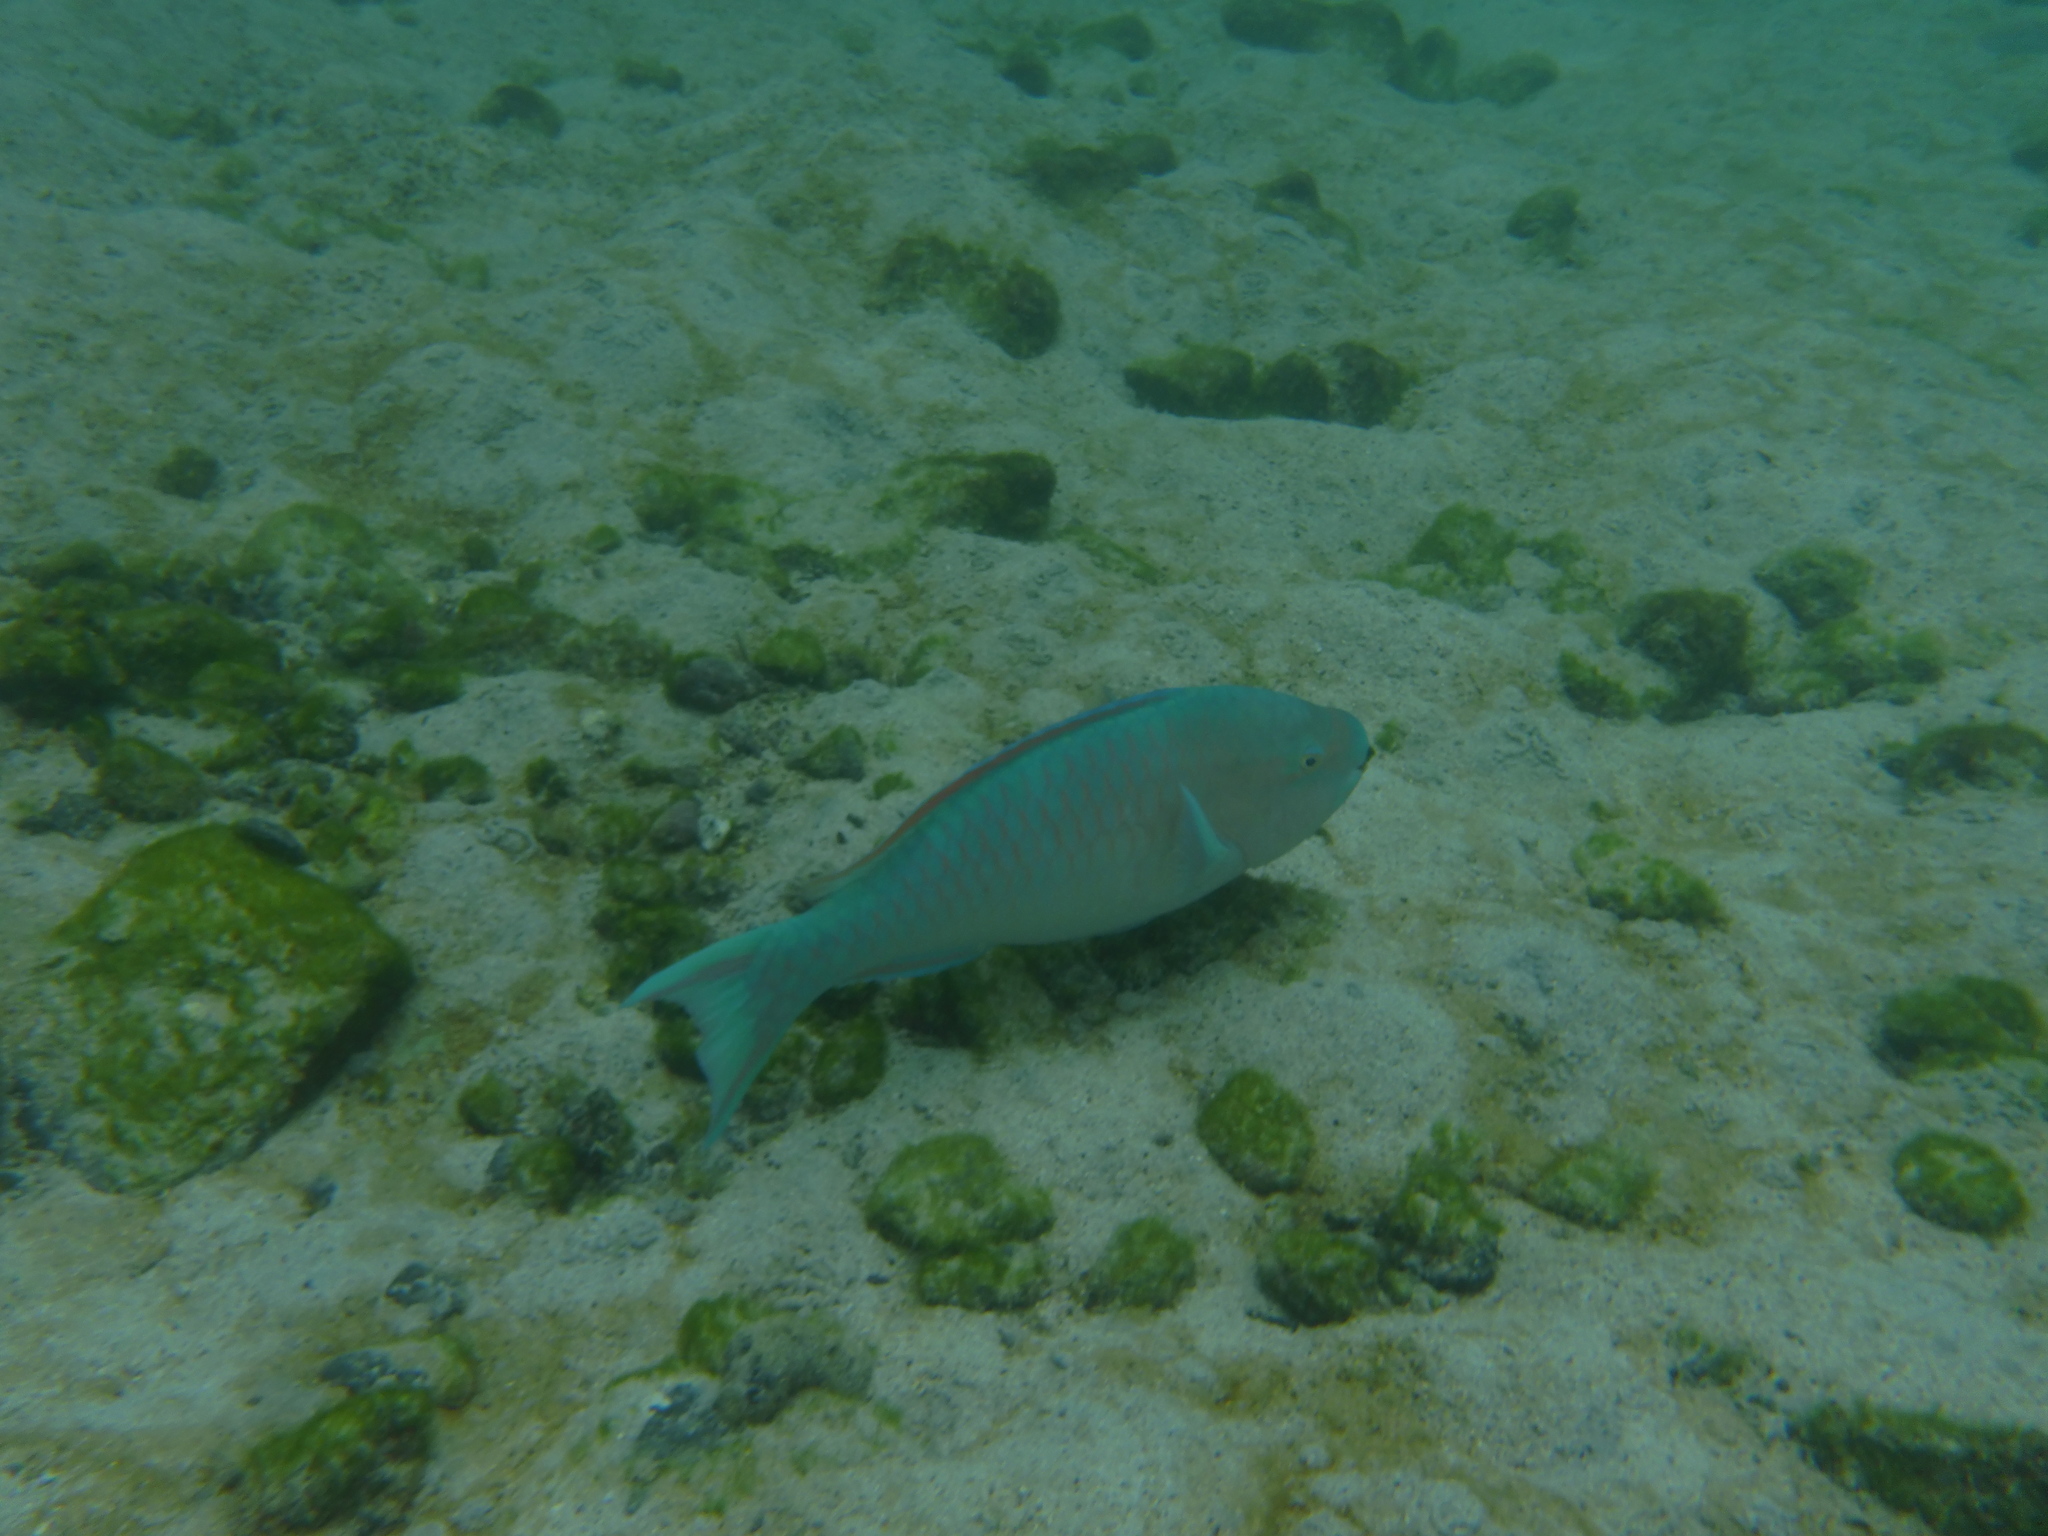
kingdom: Animalia
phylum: Chordata
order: Perciformes
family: Scaridae
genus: Scarus
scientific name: Scarus ghobban
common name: Blue-barred parrotfish
